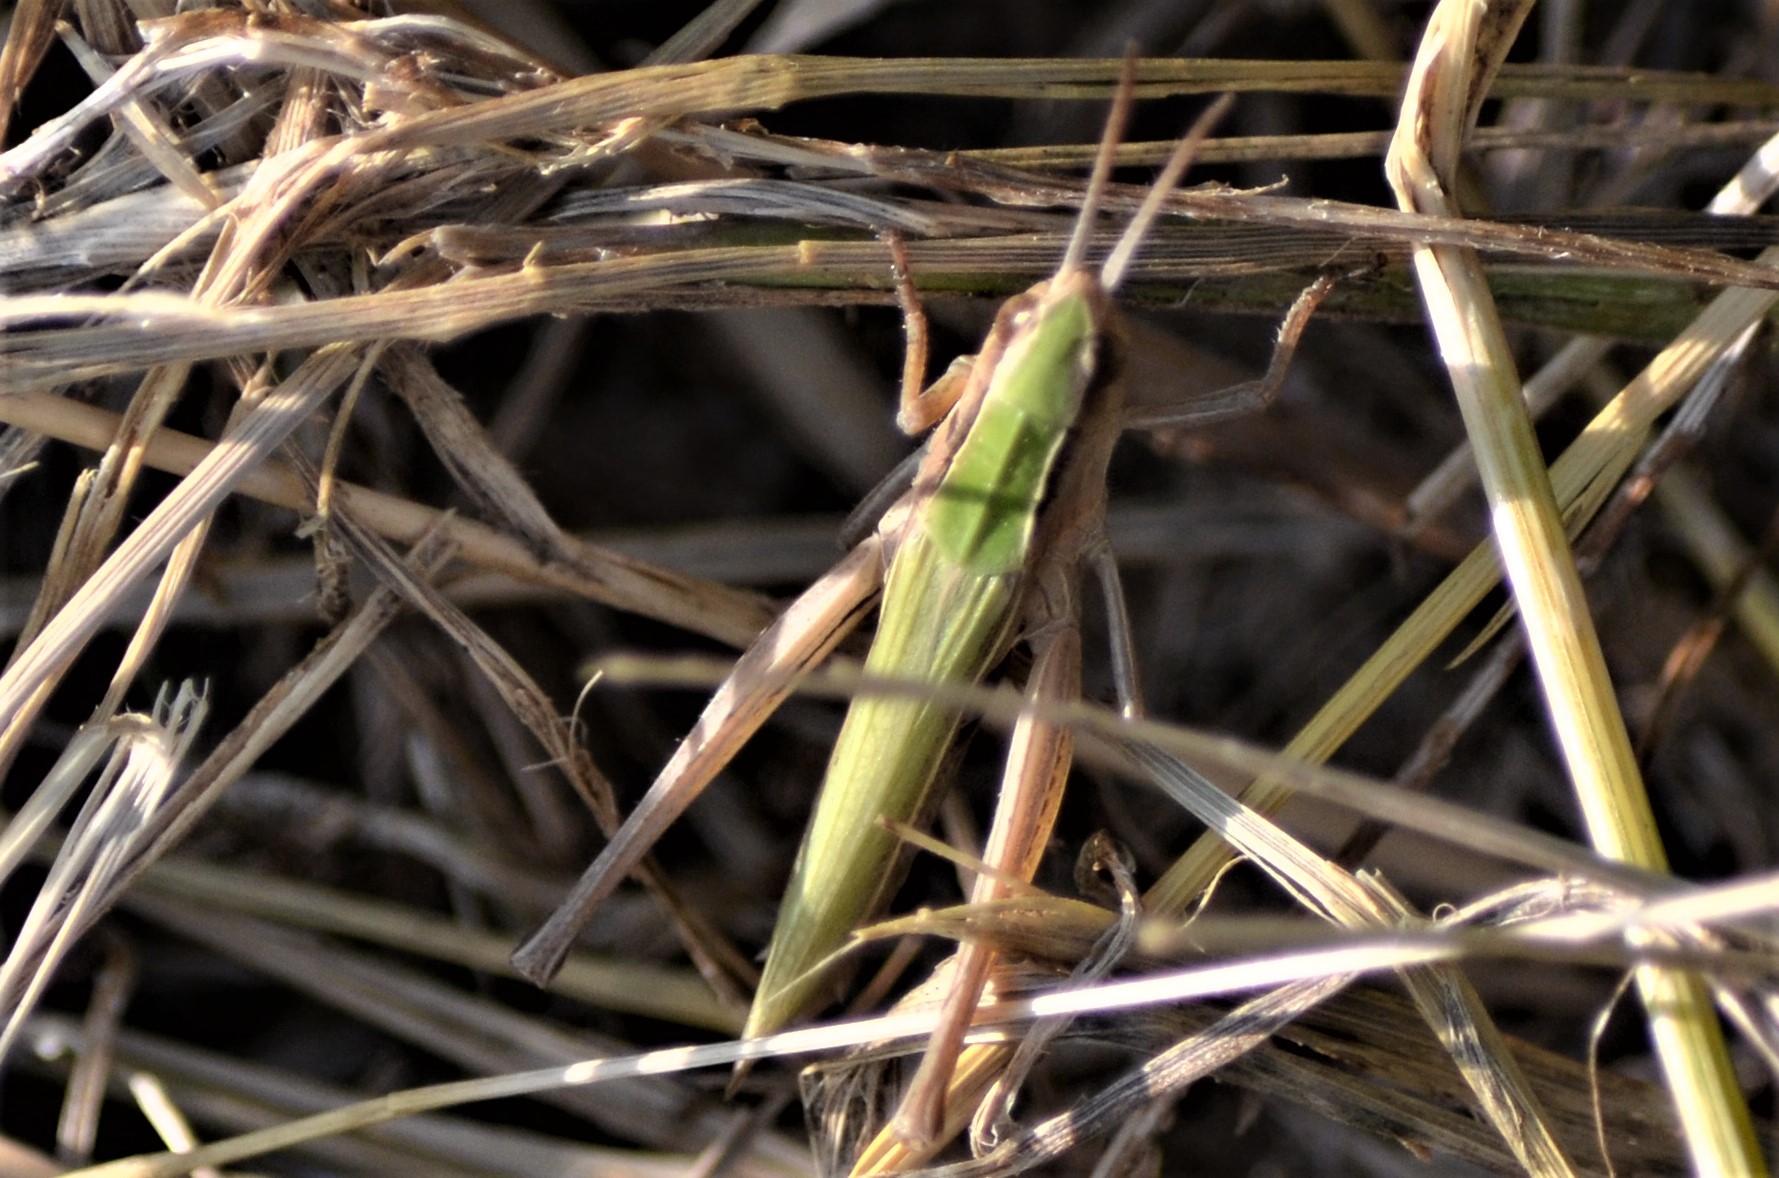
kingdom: Animalia
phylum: Arthropoda
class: Insecta
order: Orthoptera
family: Acrididae
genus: Chorthippus
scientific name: Chorthippus albomarginatus
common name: Lesser marsh grasshopper
